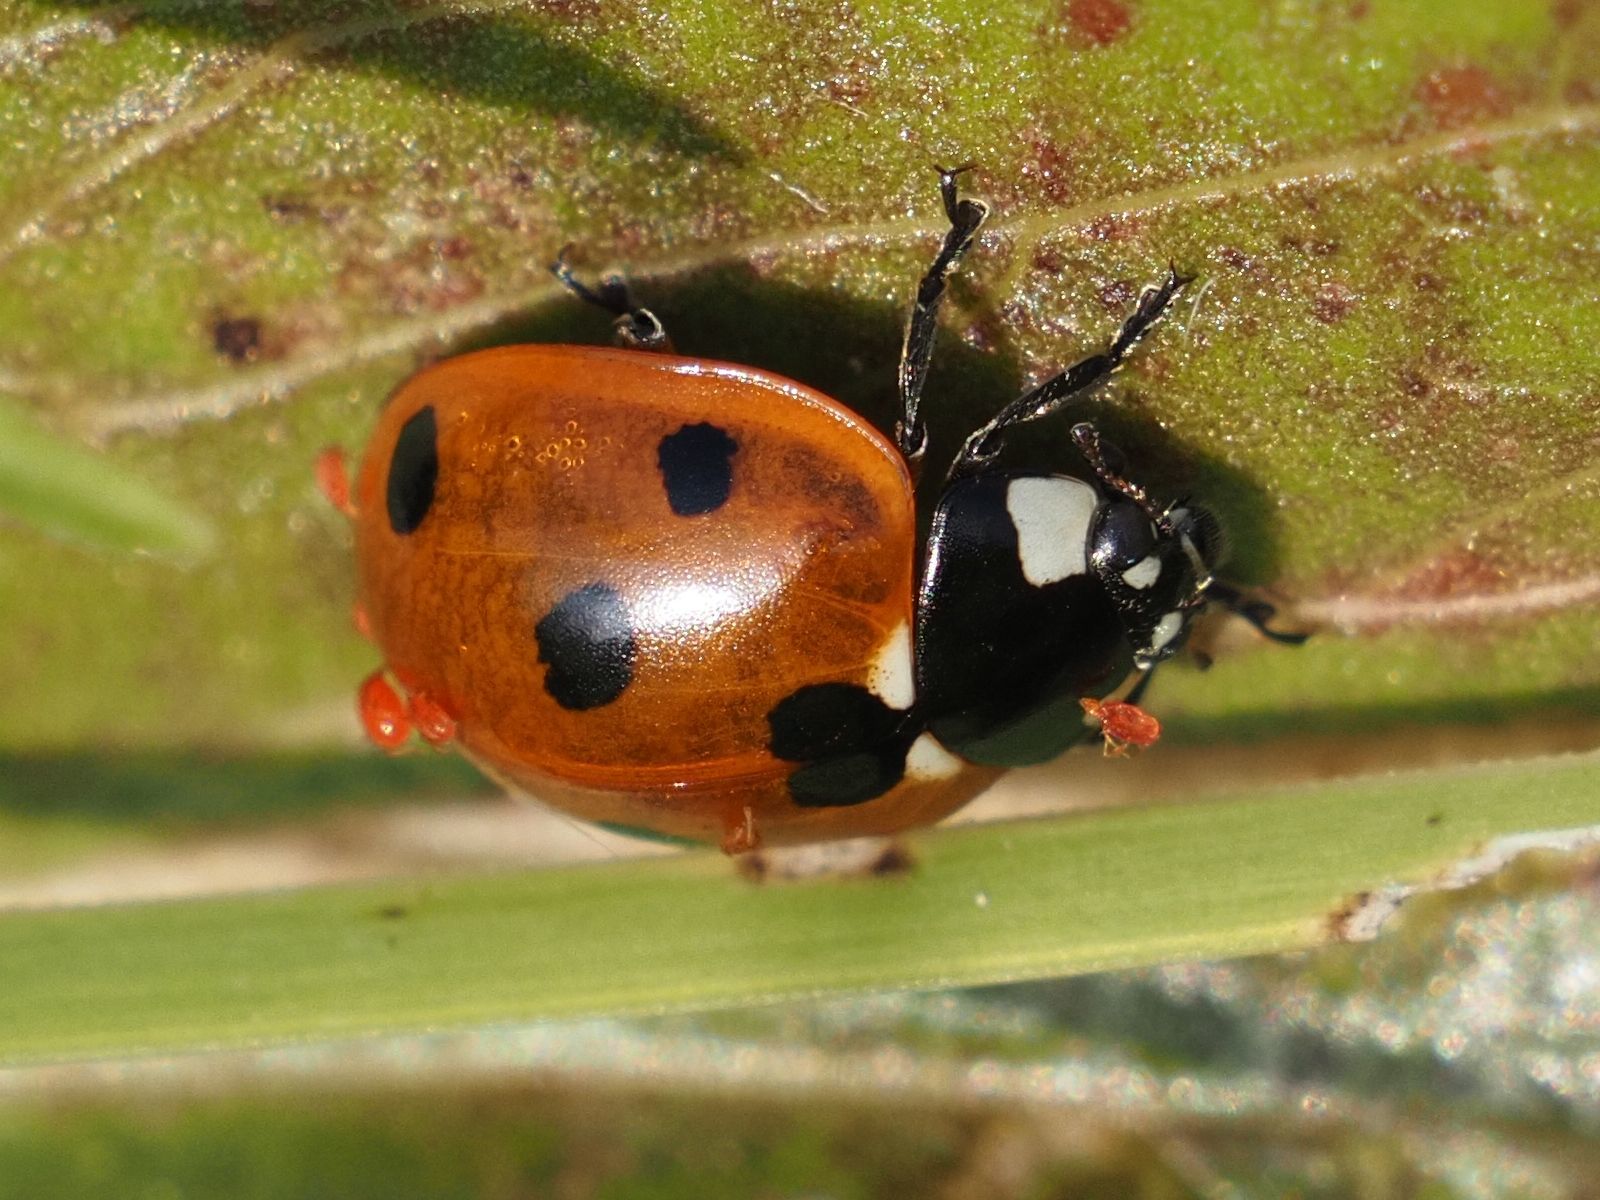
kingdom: Animalia
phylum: Arthropoda
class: Insecta
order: Coleoptera
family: Coccinellidae
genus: Coccinella
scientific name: Coccinella septempunctata
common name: Sevenspotted lady beetle
